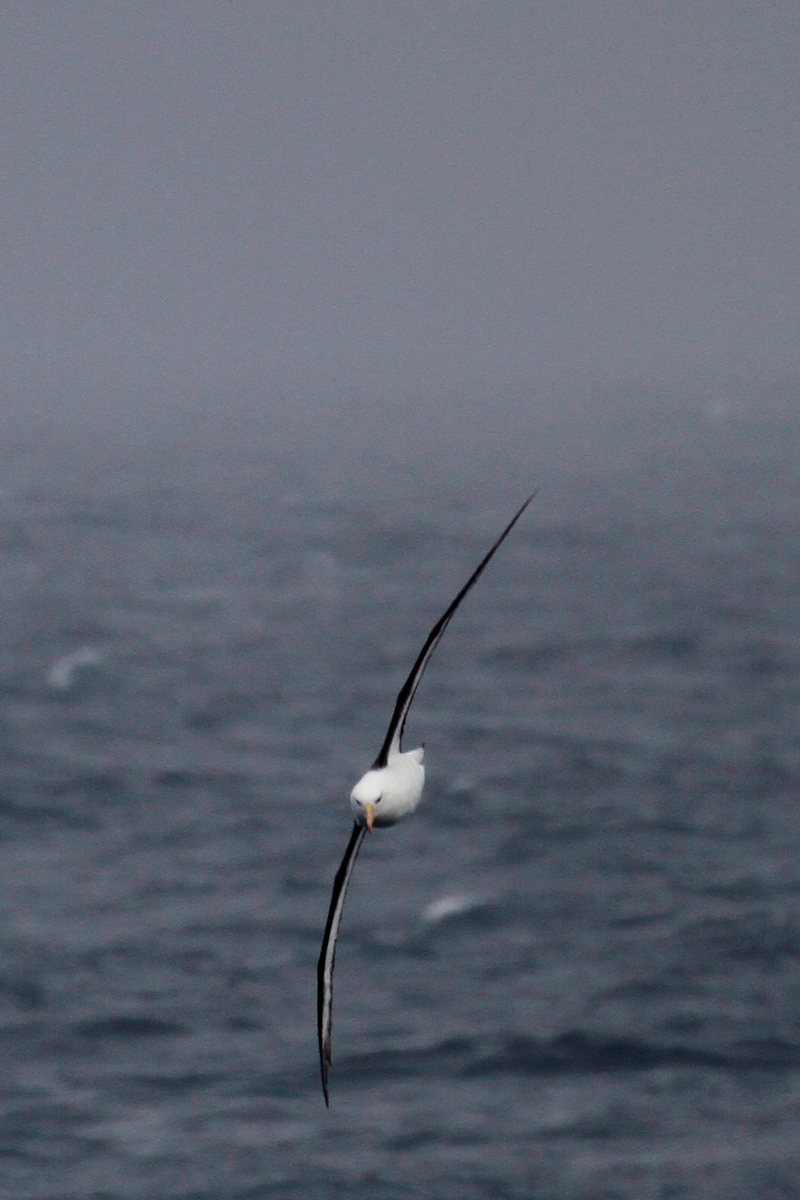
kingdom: Animalia
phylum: Chordata
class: Aves
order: Procellariiformes
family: Diomedeidae
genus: Thalassarche
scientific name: Thalassarche melanophris
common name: Black-browed albatross
